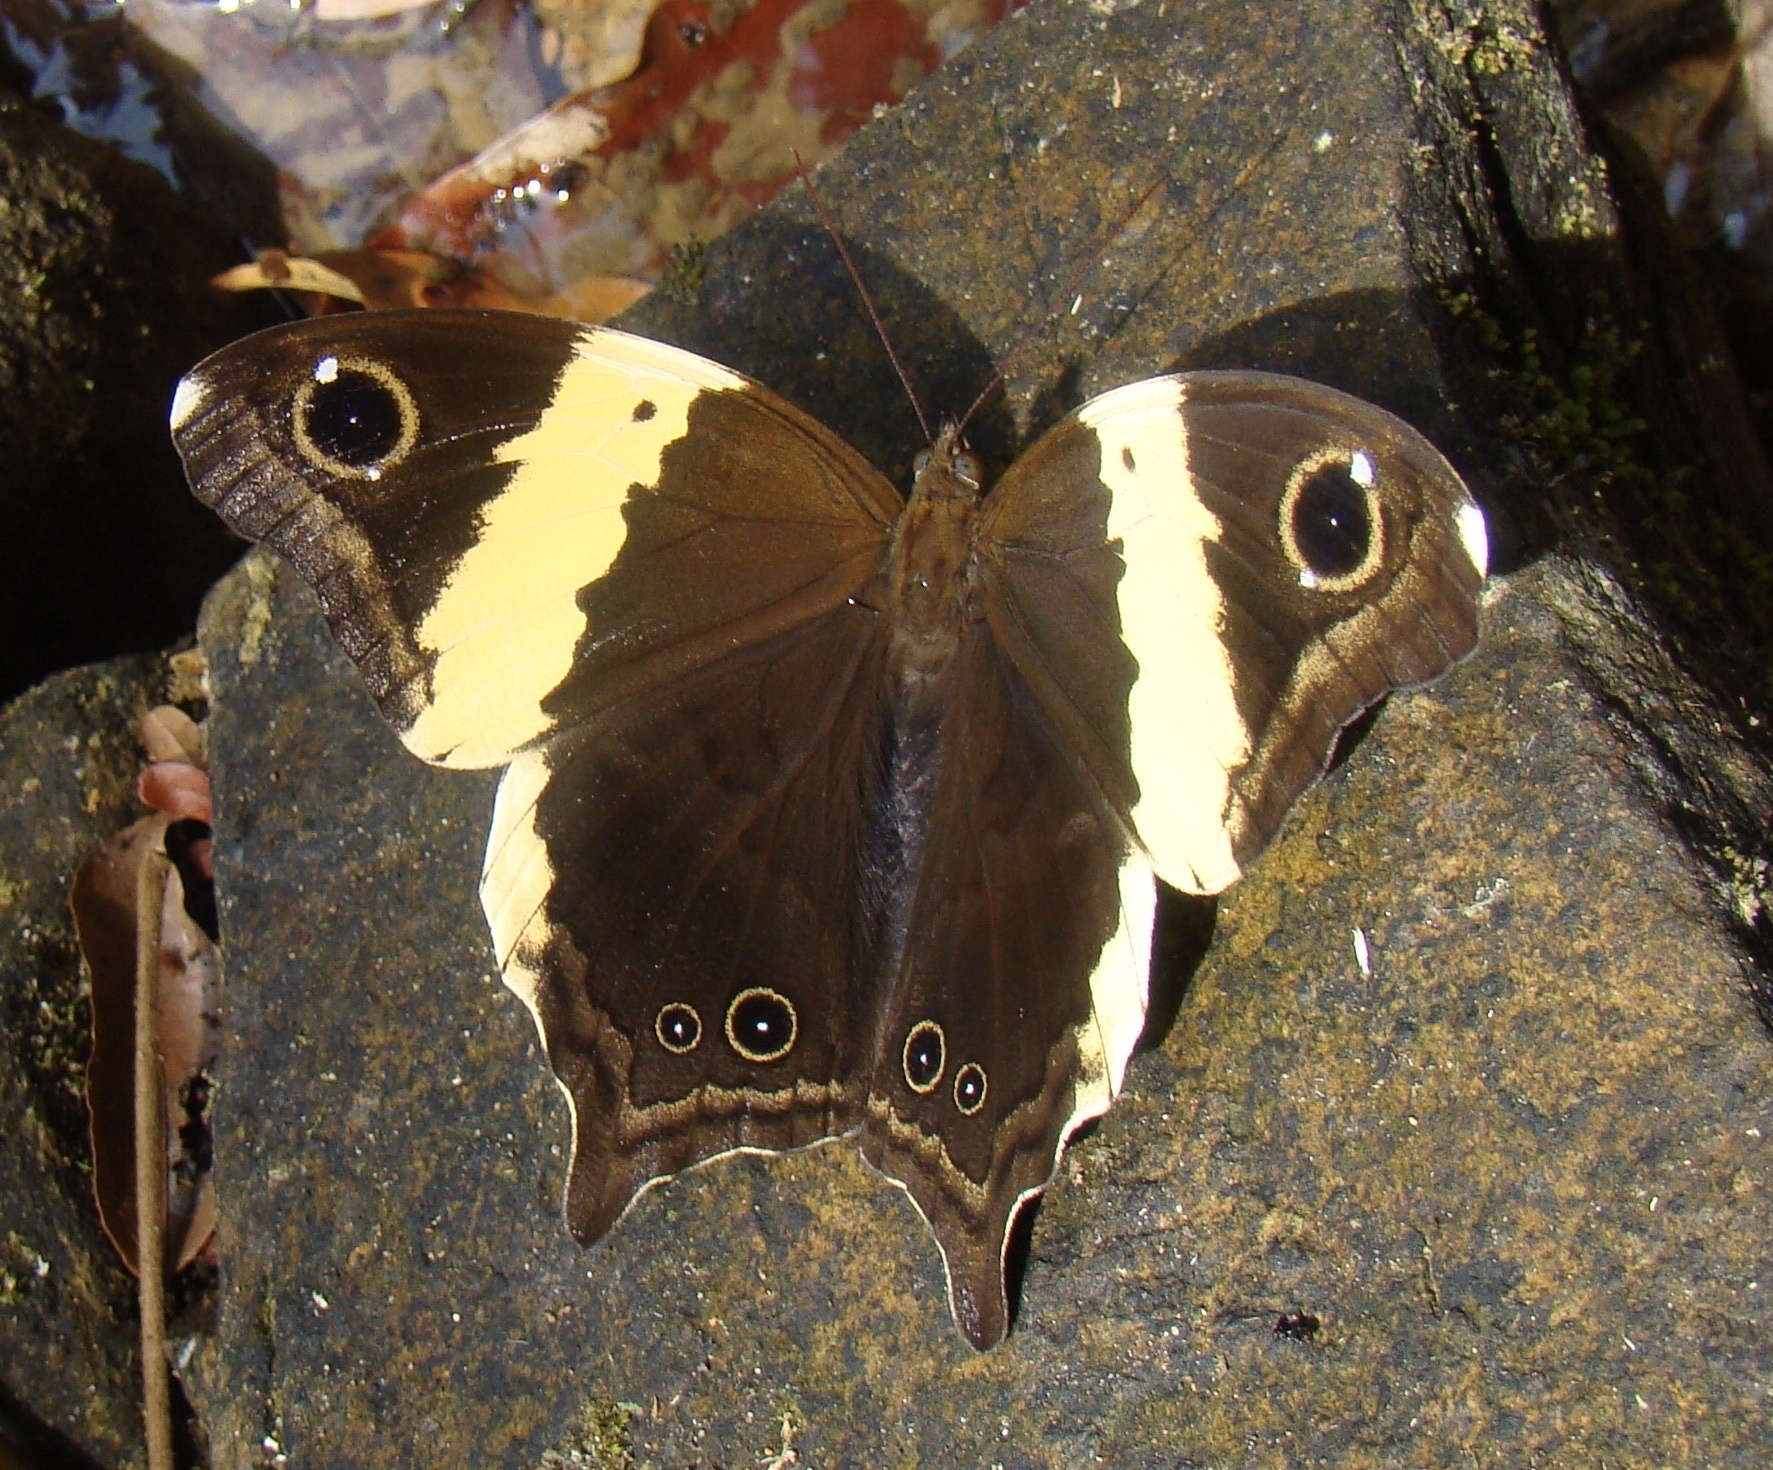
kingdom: Animalia
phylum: Arthropoda
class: Insecta
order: Lepidoptera
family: Nymphalidae
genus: Neorina
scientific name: Neorina crishna
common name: Tailed yellow owl
